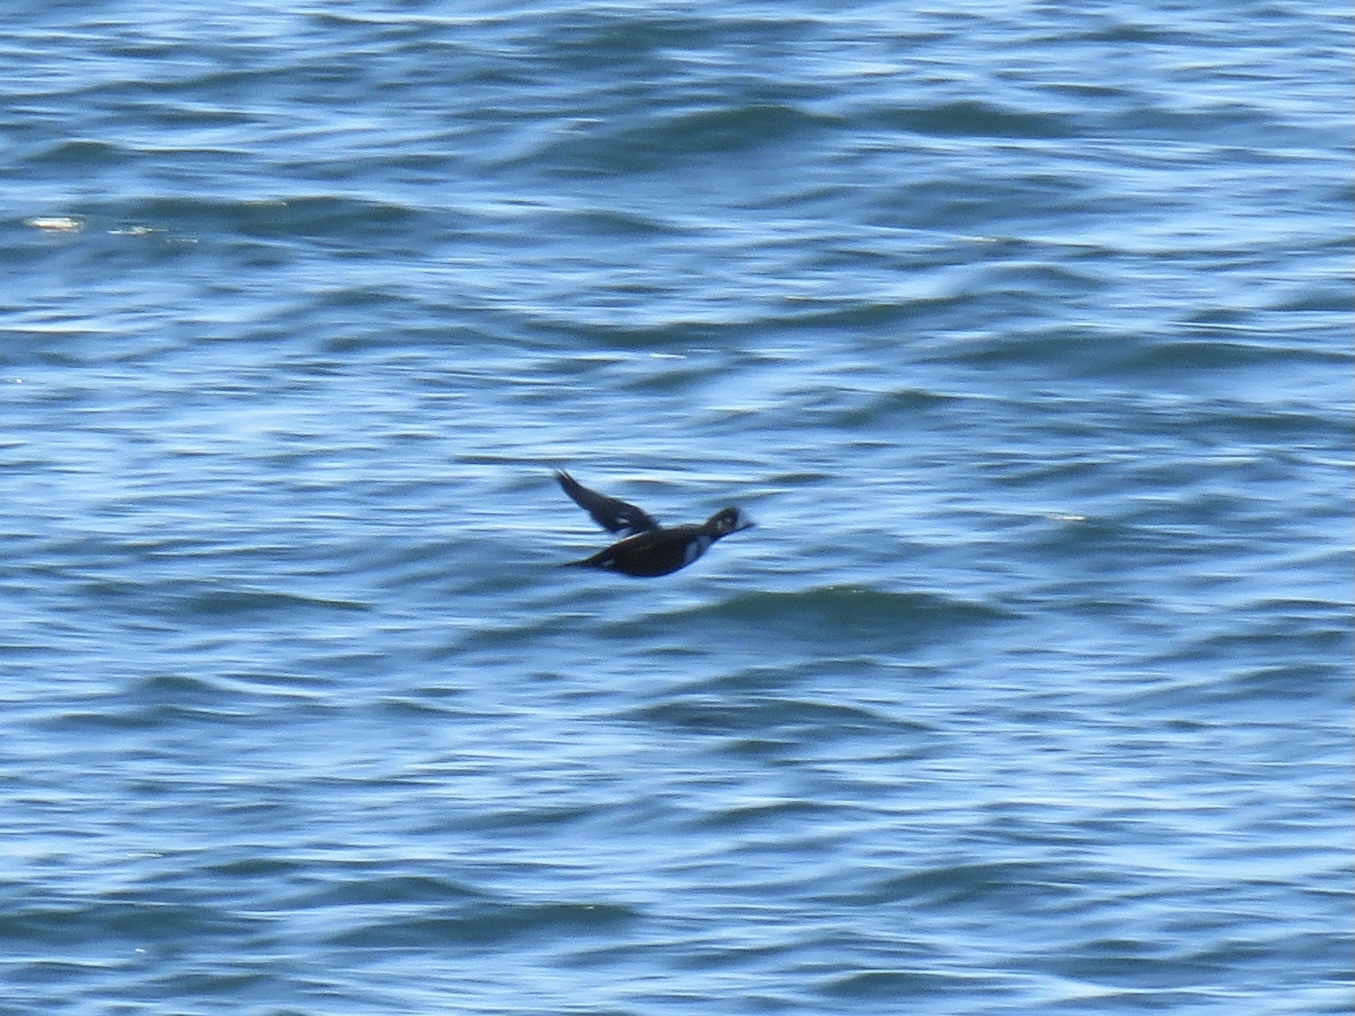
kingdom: Animalia
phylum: Chordata
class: Aves
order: Anseriformes
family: Anatidae
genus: Histrionicus
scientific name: Histrionicus histrionicus
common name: Harlequin duck
